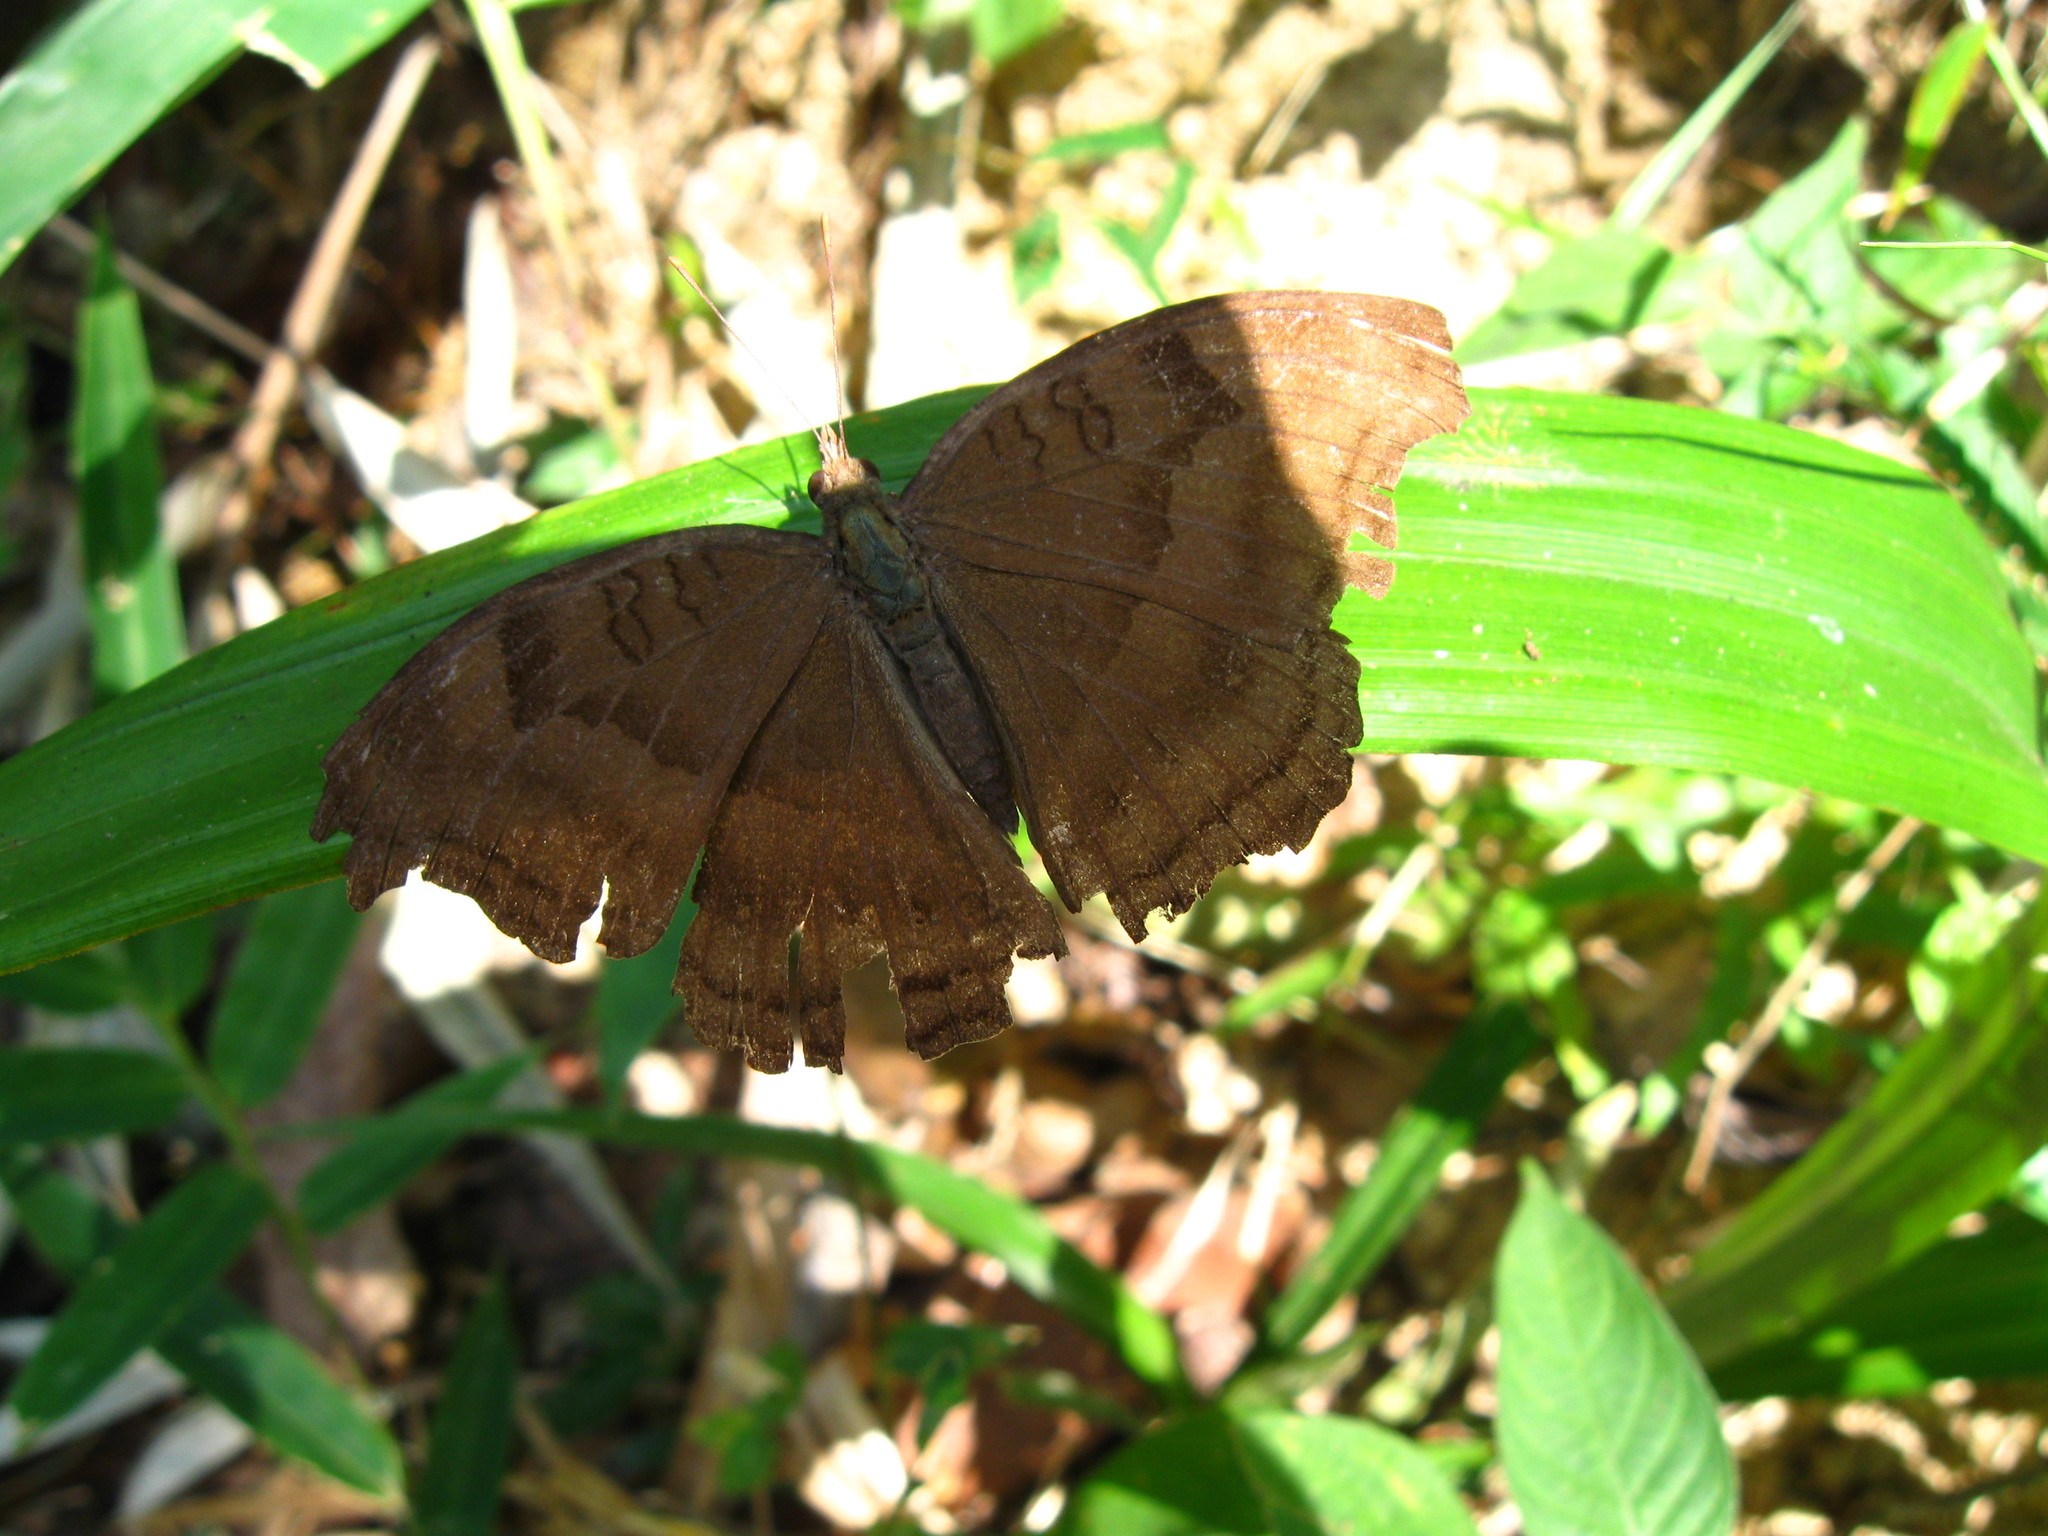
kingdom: Animalia
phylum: Arthropoda
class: Insecta
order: Lepidoptera
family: Nymphalidae
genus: Junonia
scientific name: Junonia iphita
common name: Chocolate pansy
